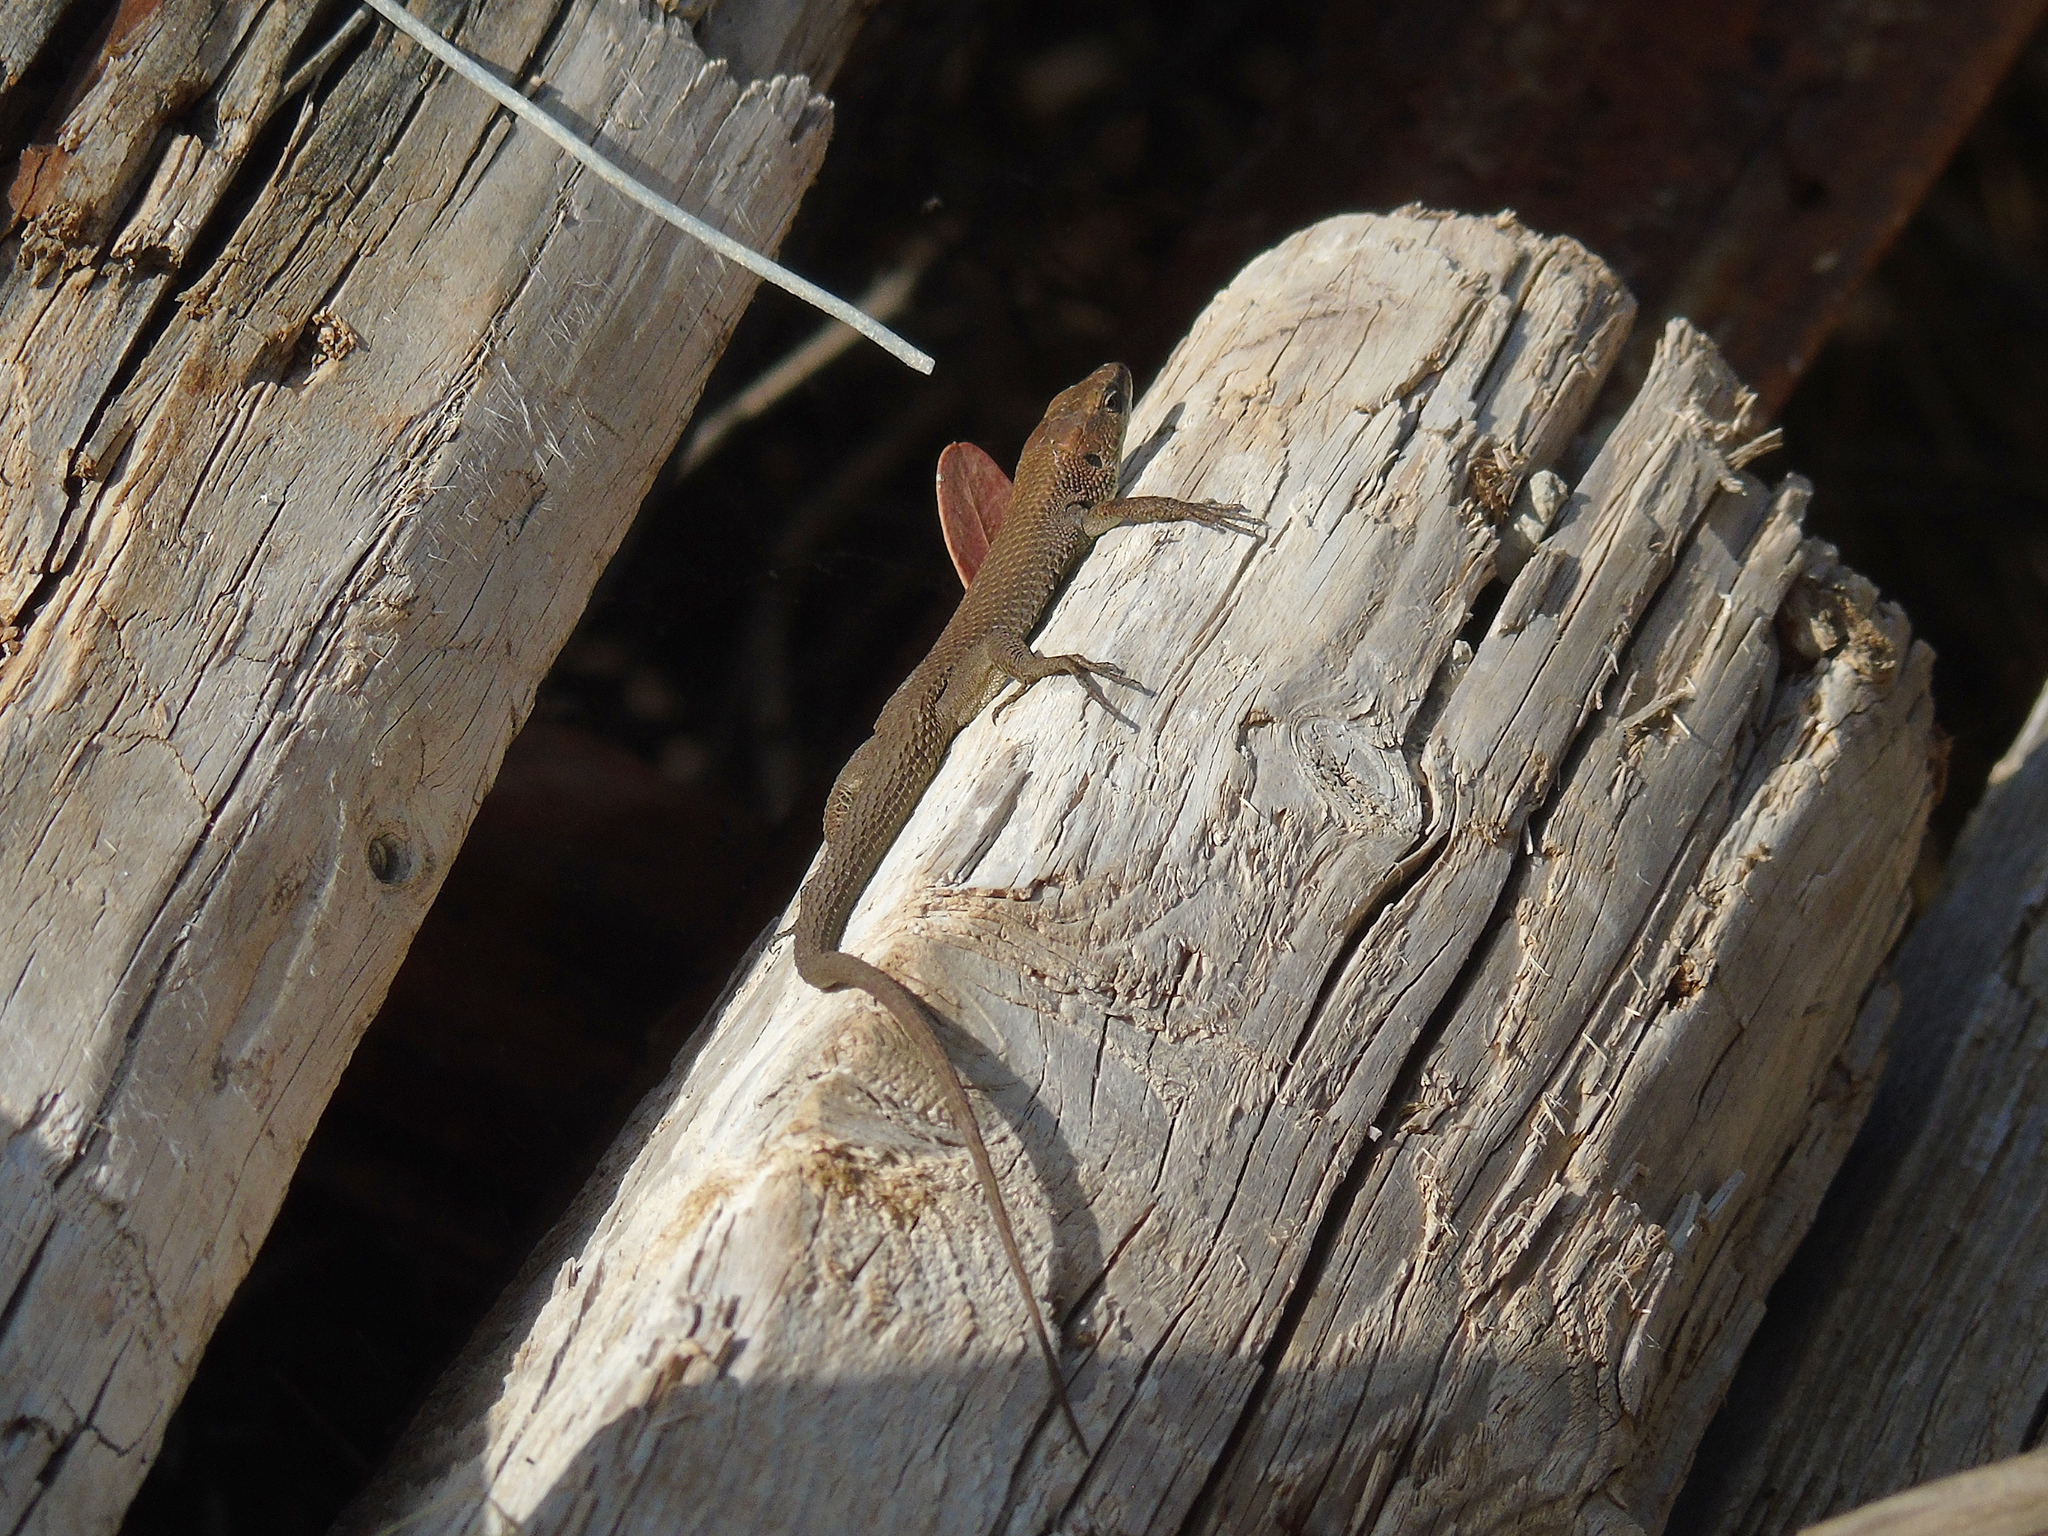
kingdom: Animalia
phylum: Chordata
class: Squamata
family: Lacertidae
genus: Algyroides
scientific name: Algyroides moreoticus
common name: Greek algyroides
